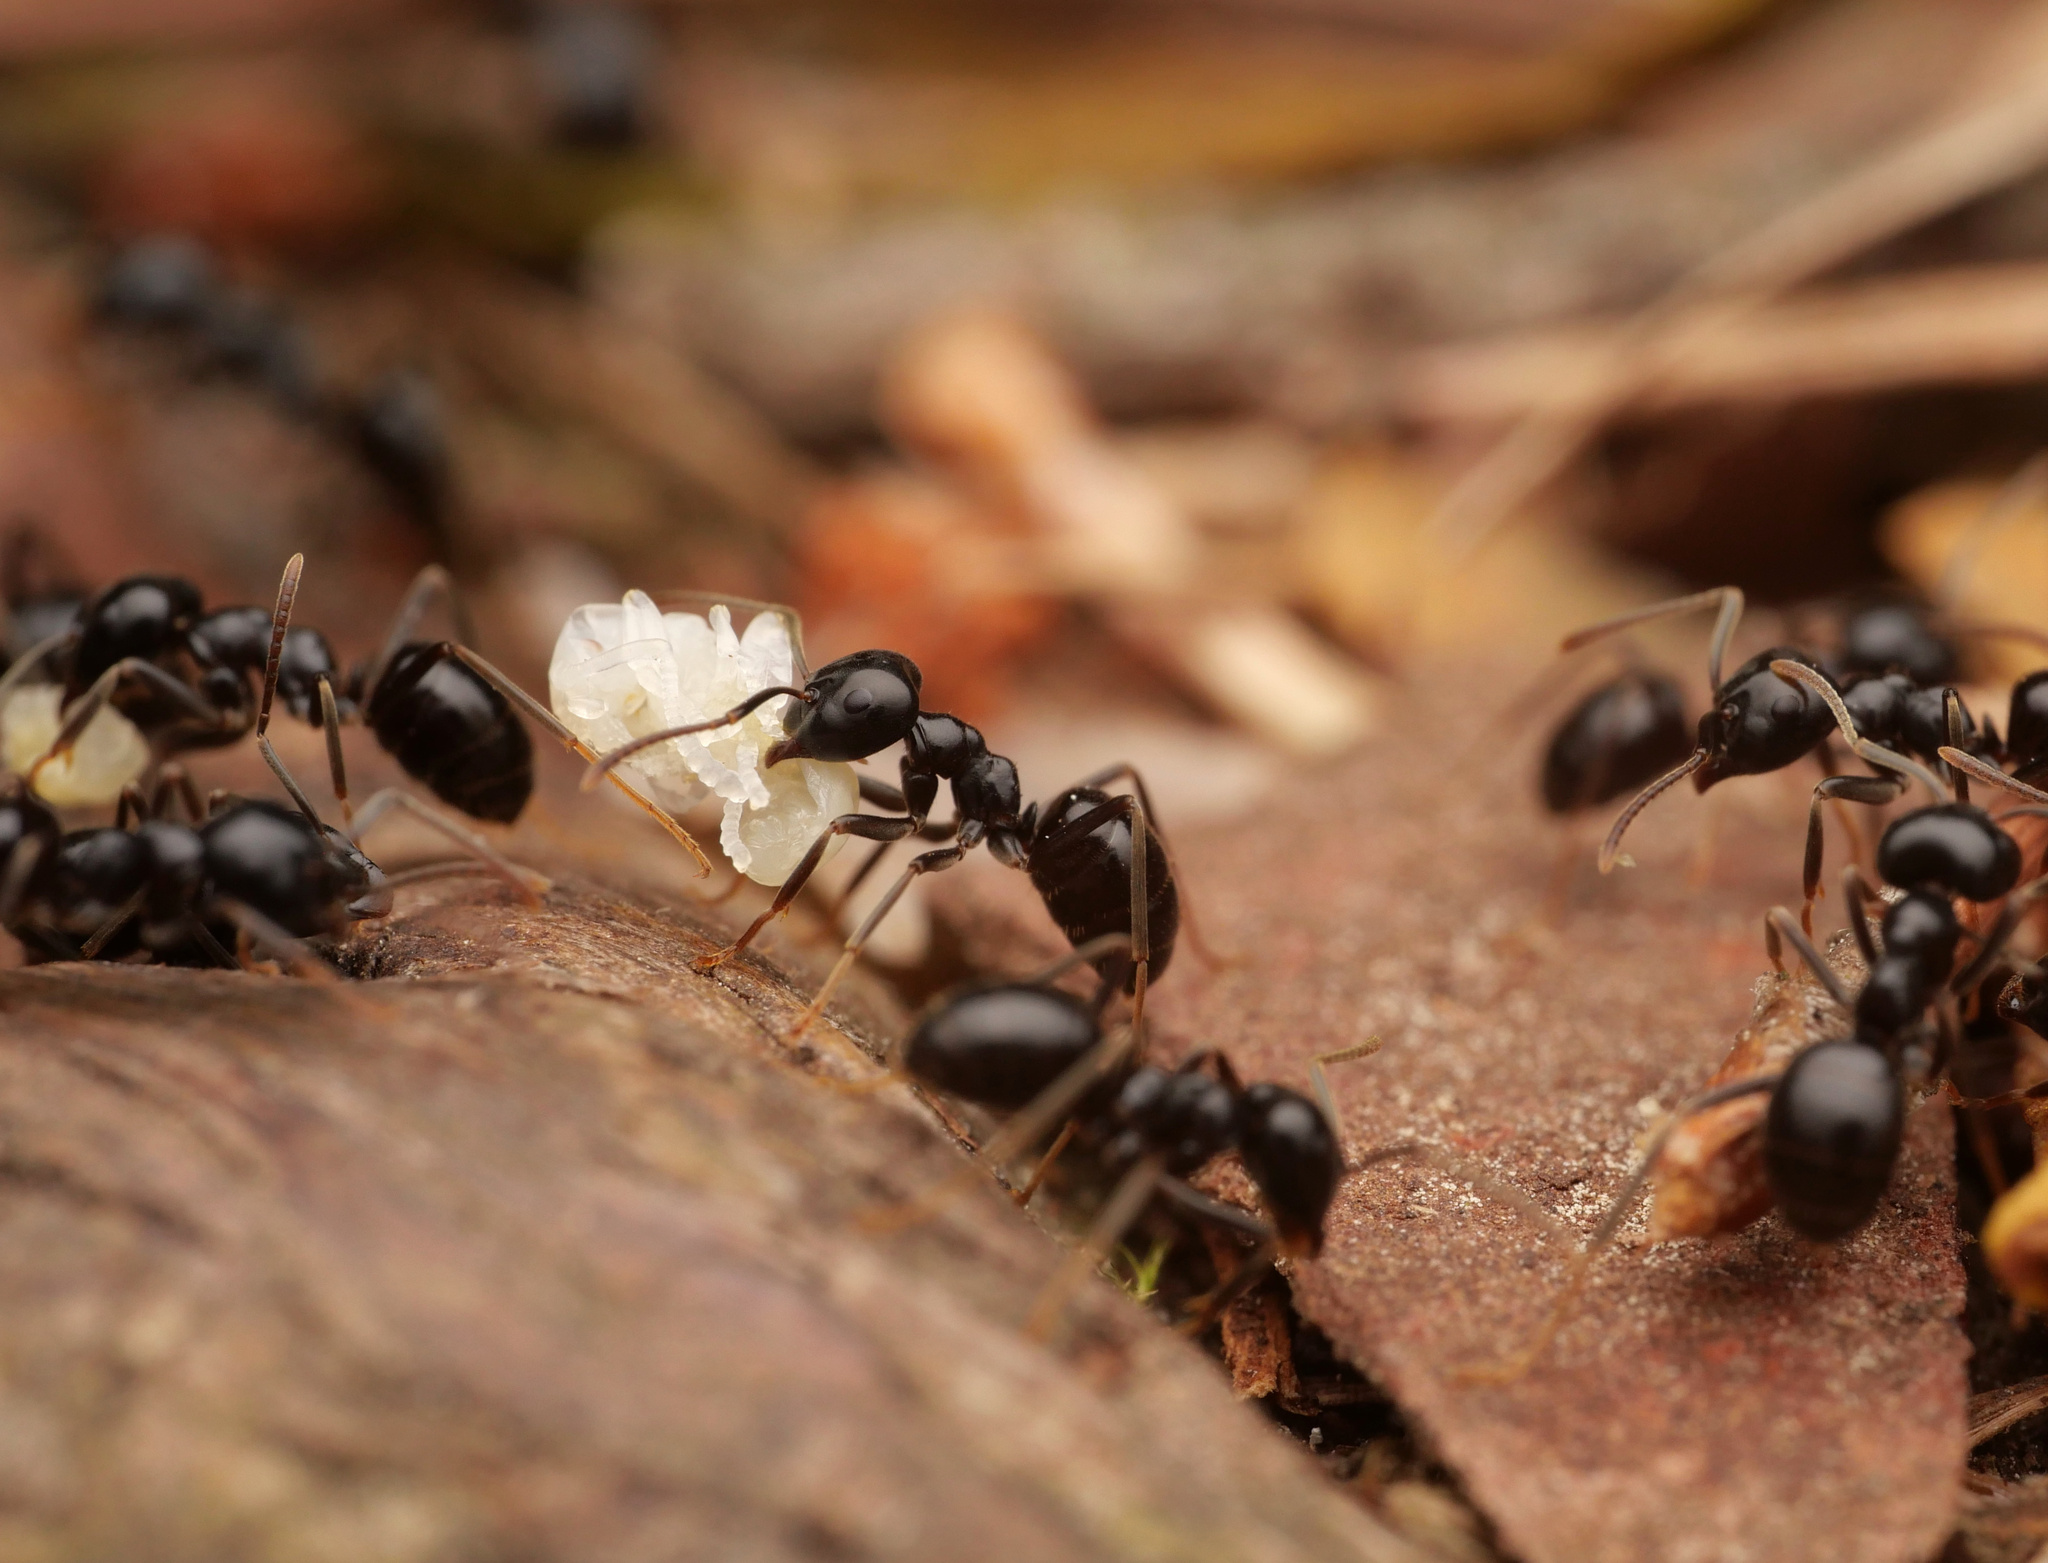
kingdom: Animalia
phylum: Arthropoda
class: Insecta
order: Hymenoptera
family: Formicidae
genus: Lasius
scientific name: Lasius fuliginosus
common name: Jet ant
